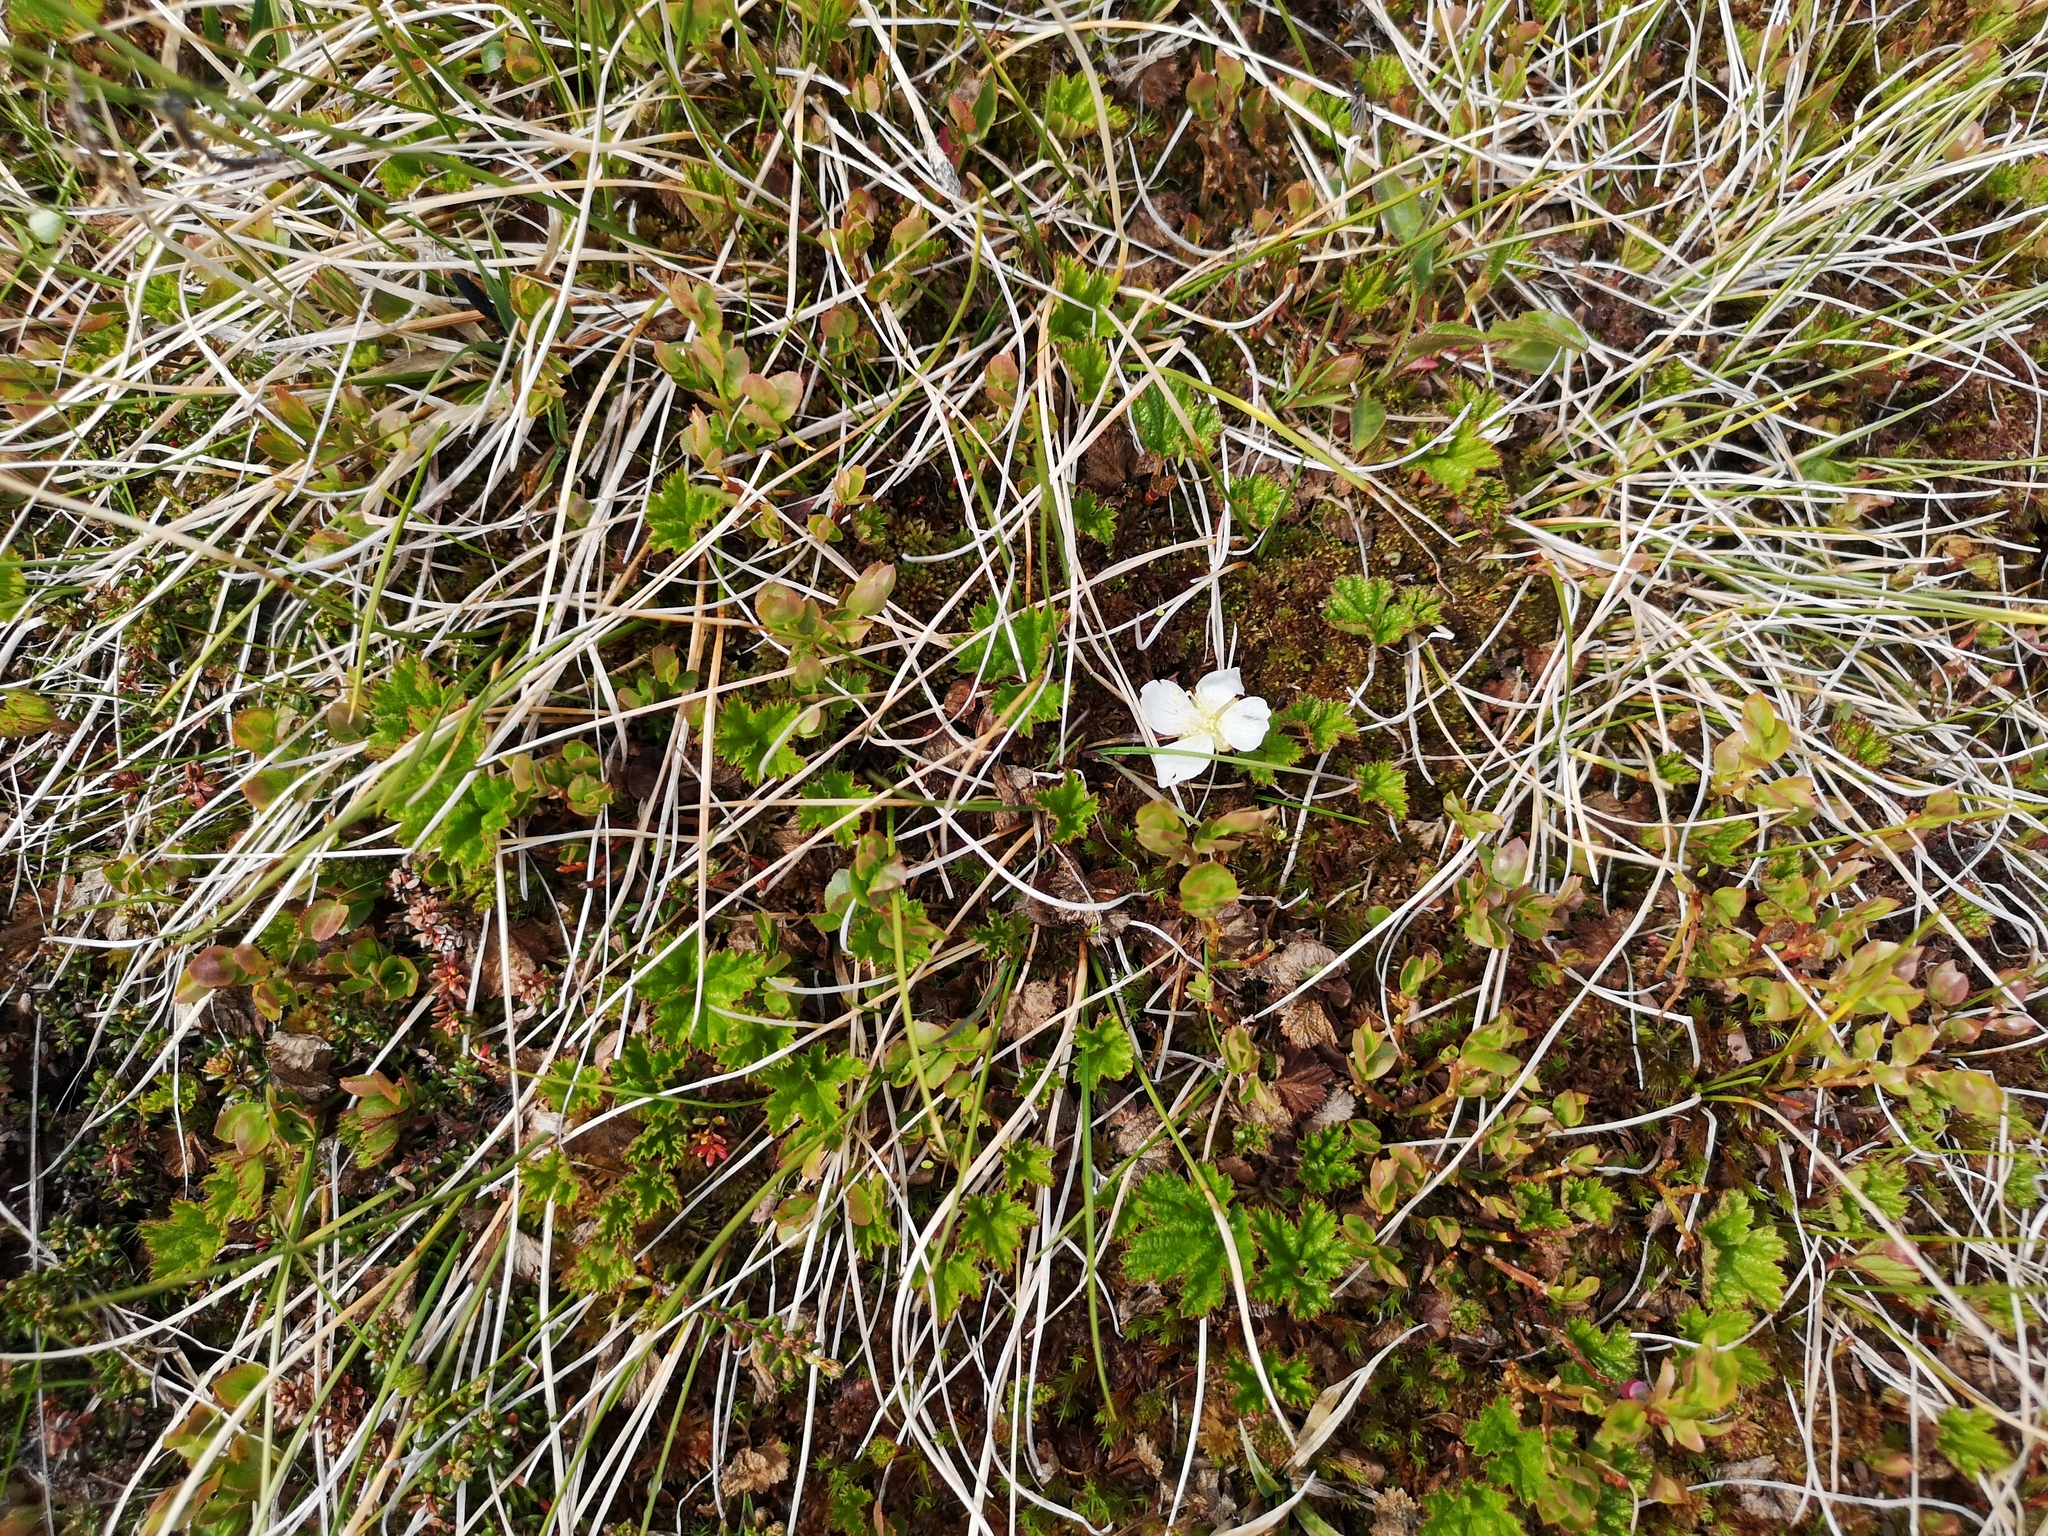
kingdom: Plantae
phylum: Tracheophyta
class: Magnoliopsida
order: Rosales
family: Rosaceae
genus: Rubus
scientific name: Rubus chamaemorus
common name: Cloudberry
